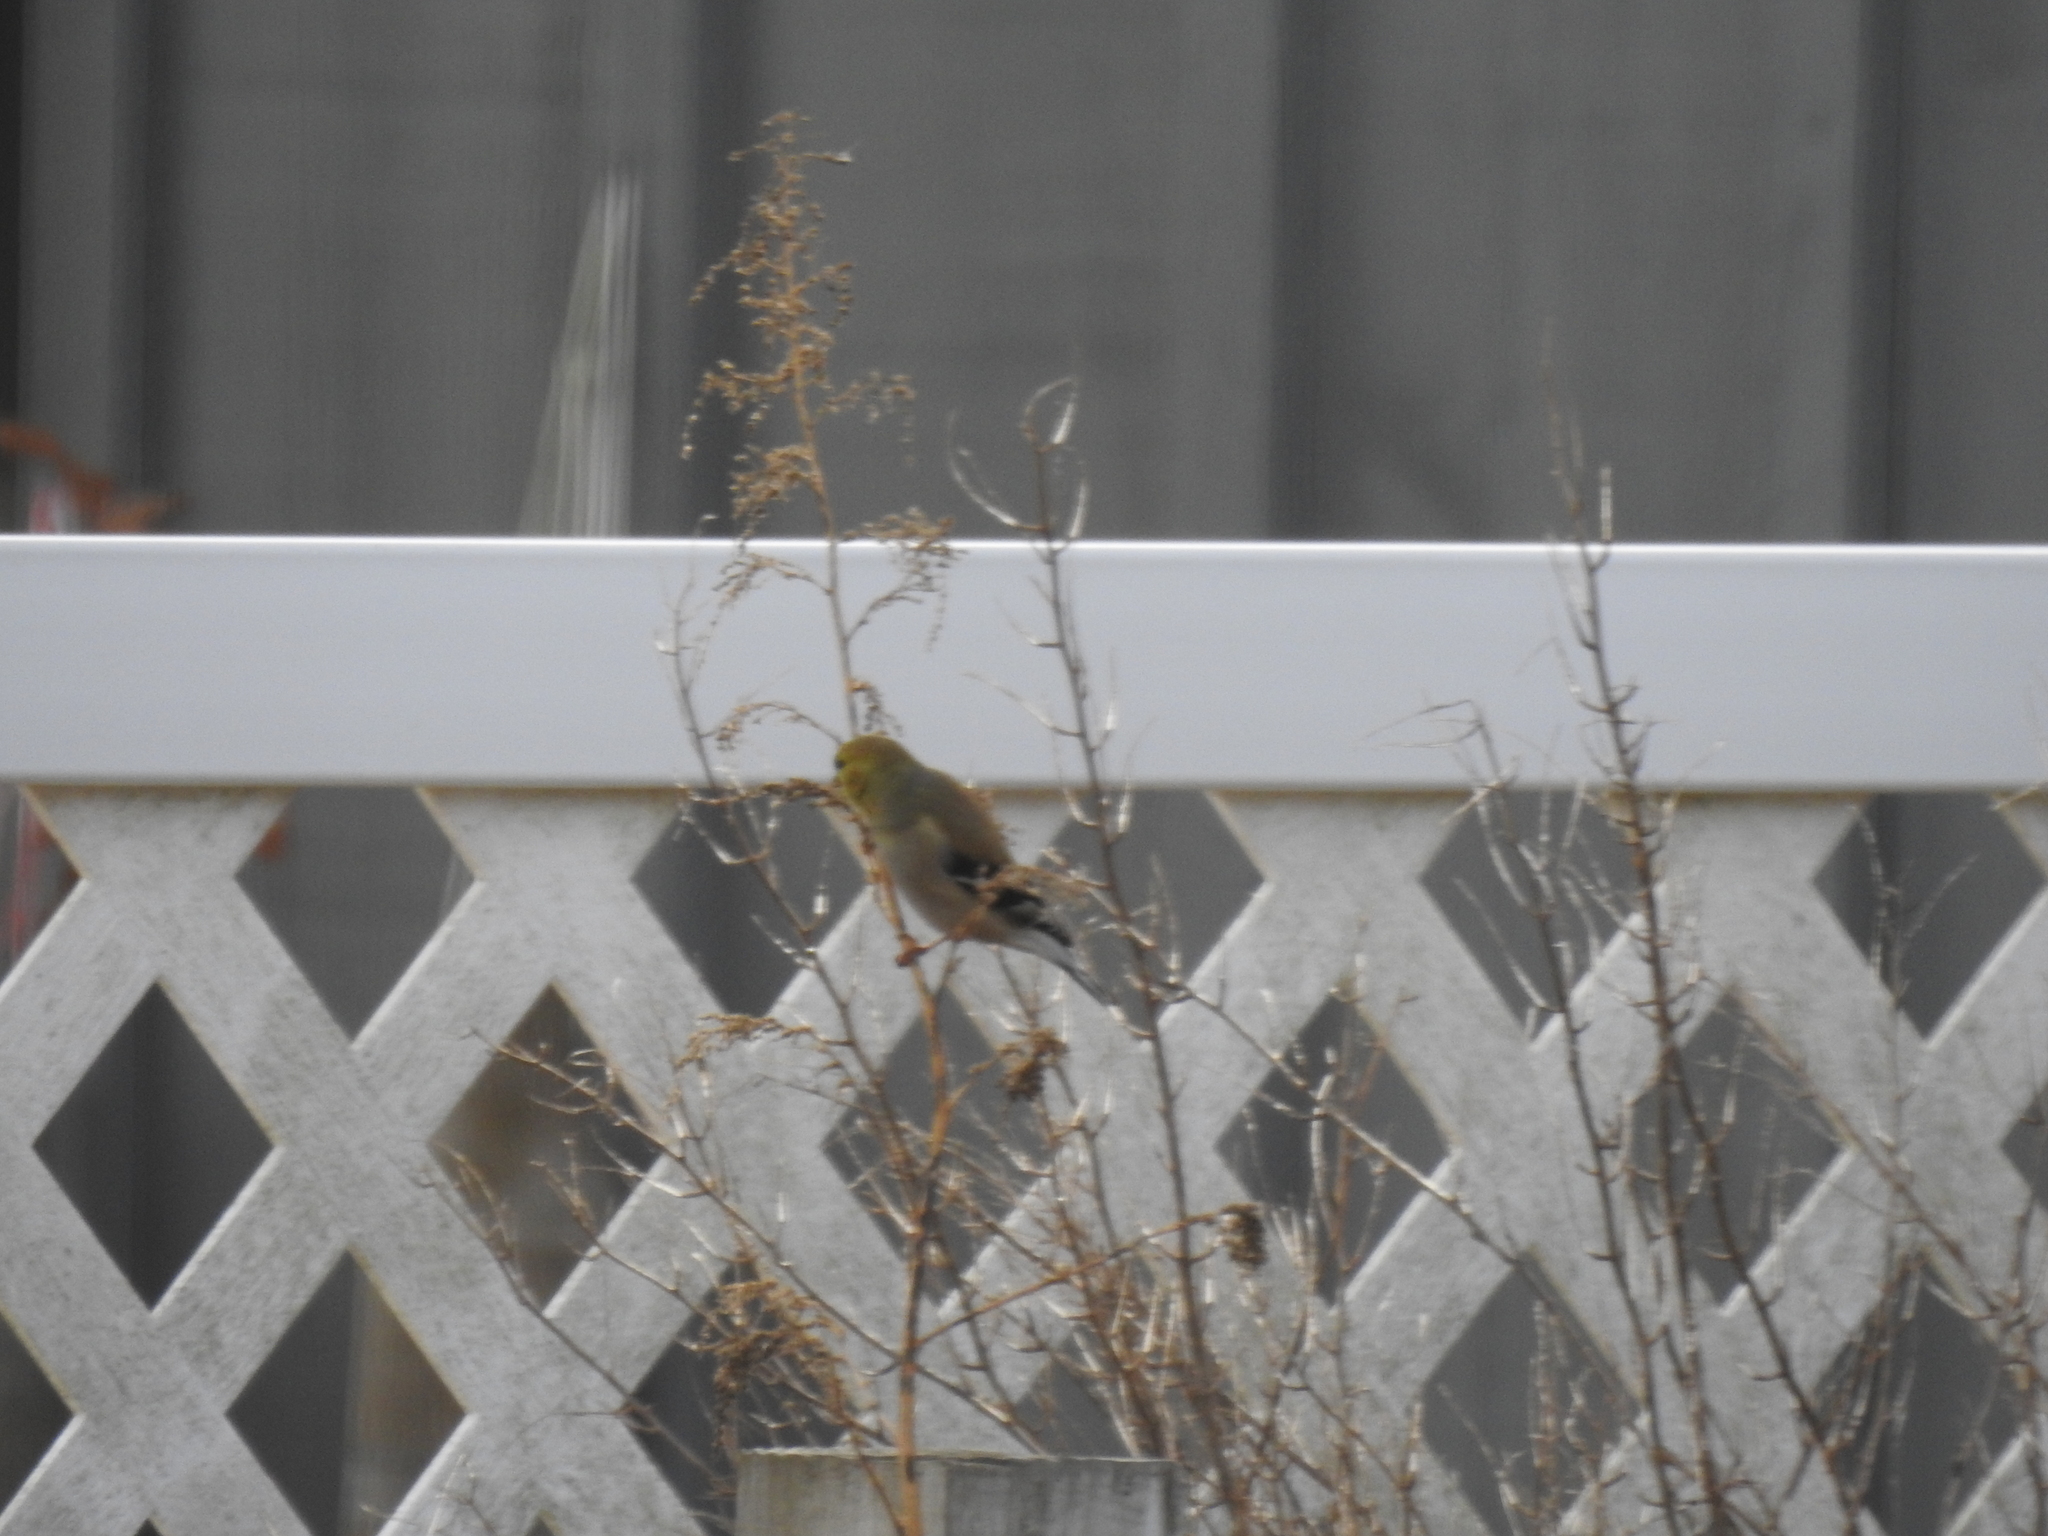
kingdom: Animalia
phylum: Chordata
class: Aves
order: Passeriformes
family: Fringillidae
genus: Spinus
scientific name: Spinus tristis
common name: American goldfinch
